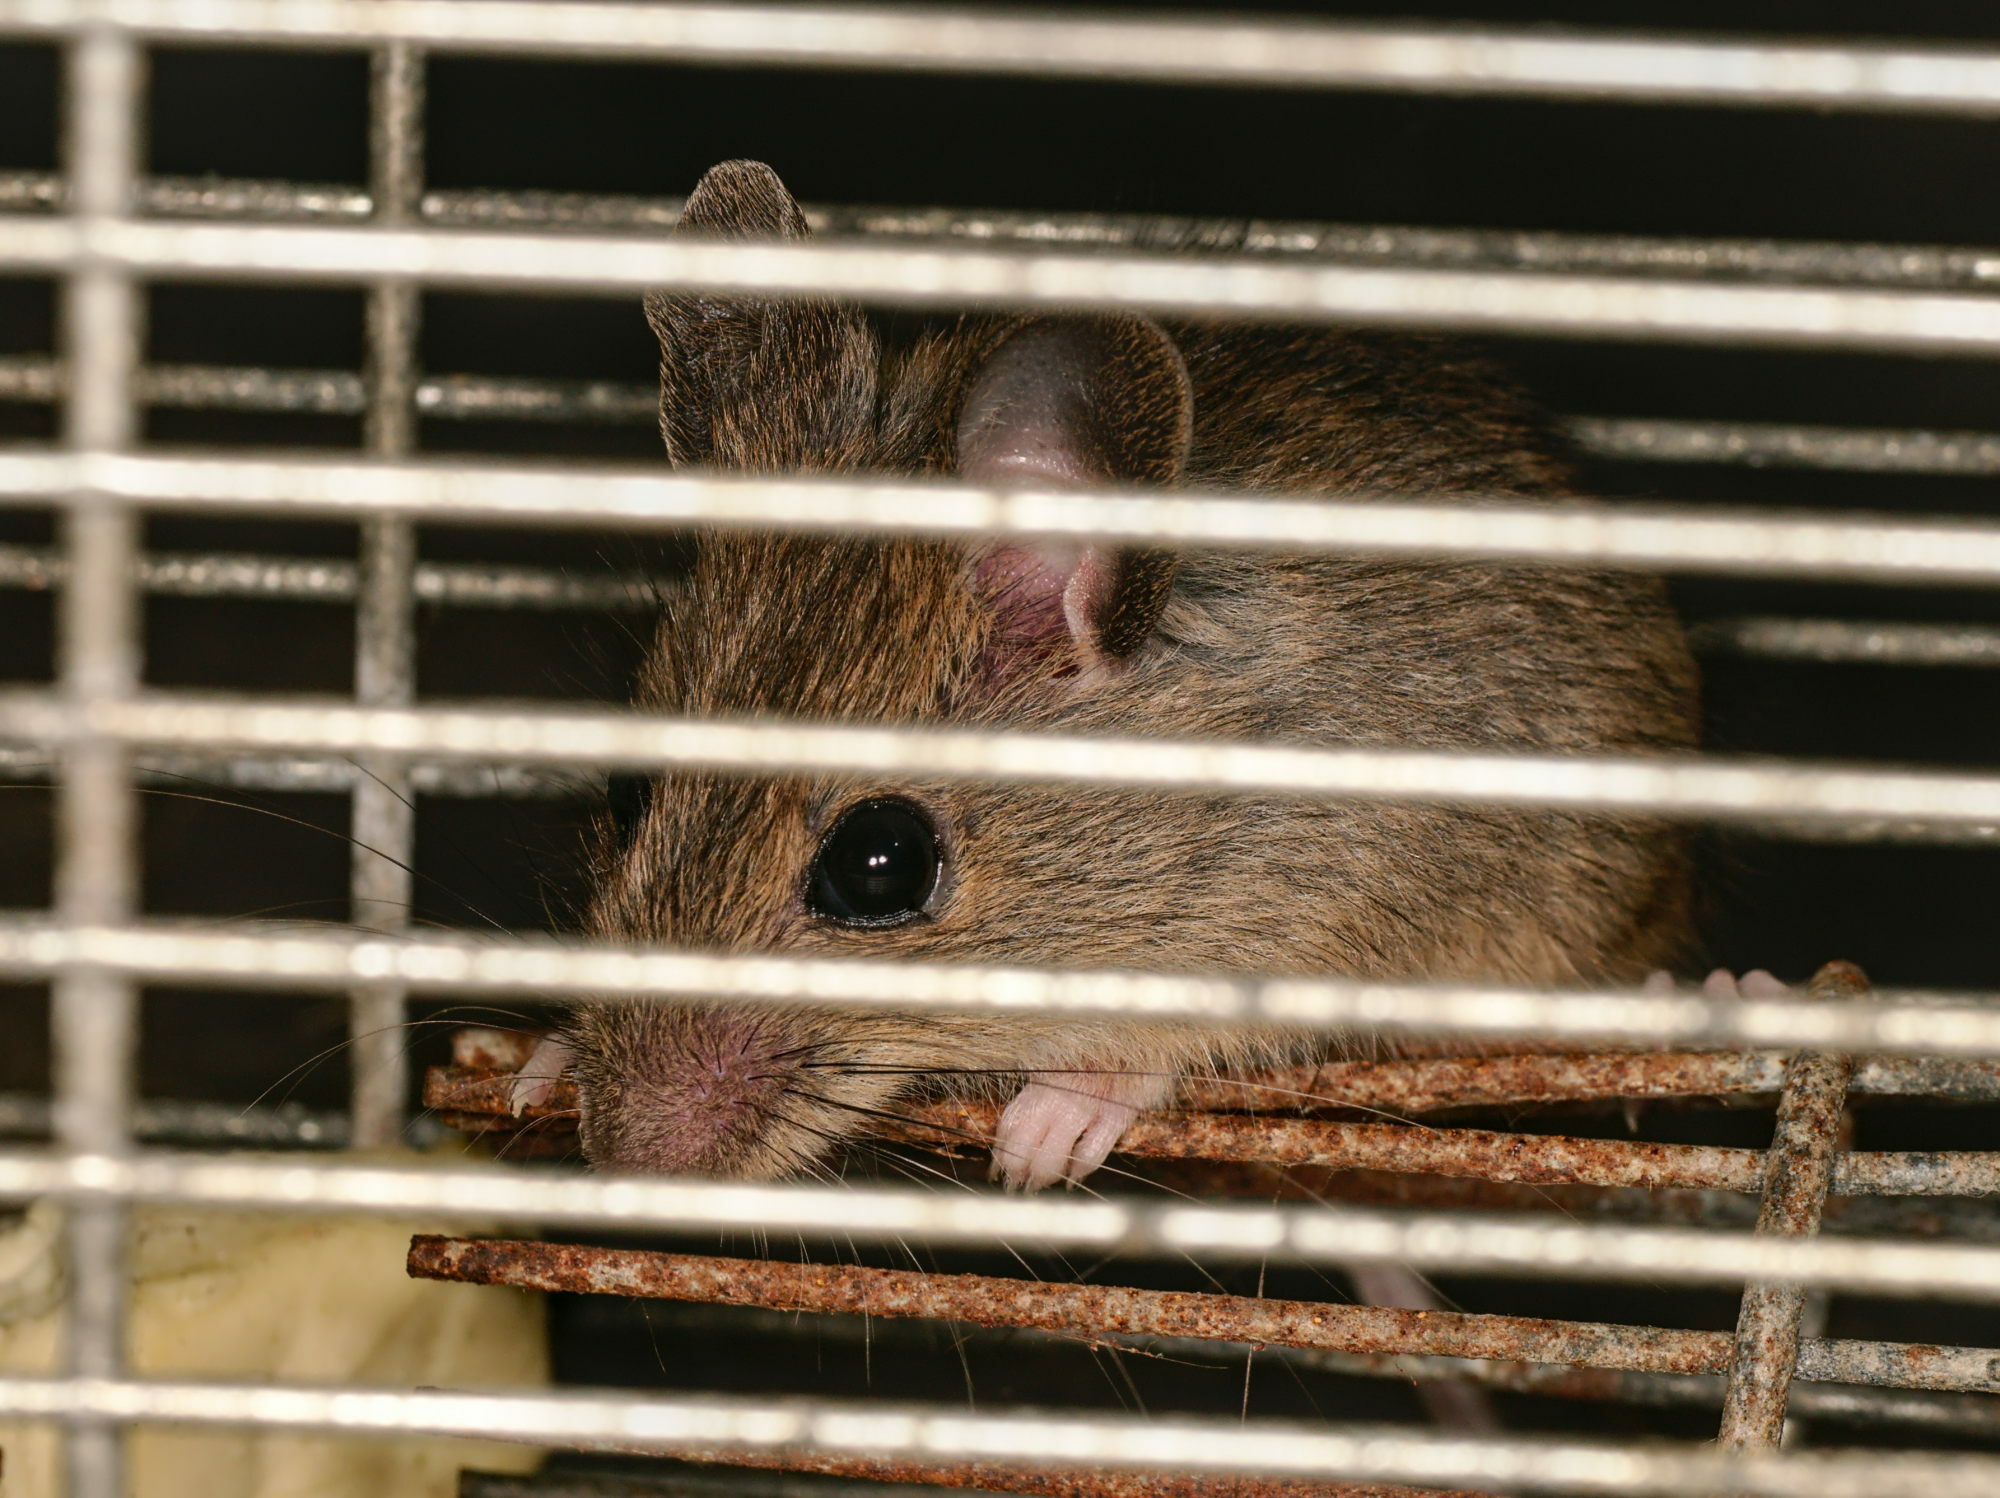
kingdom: Animalia
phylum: Chordata
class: Mammalia
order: Rodentia
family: Muridae
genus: Apodemus
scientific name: Apodemus sylvaticus
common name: Wood mouse
